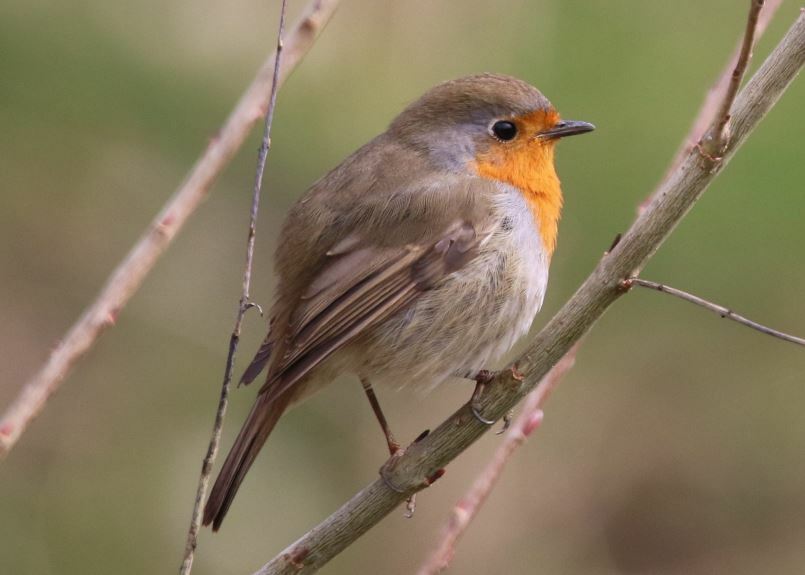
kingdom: Animalia
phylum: Chordata
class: Aves
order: Passeriformes
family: Muscicapidae
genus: Erithacus
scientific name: Erithacus rubecula
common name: European robin
